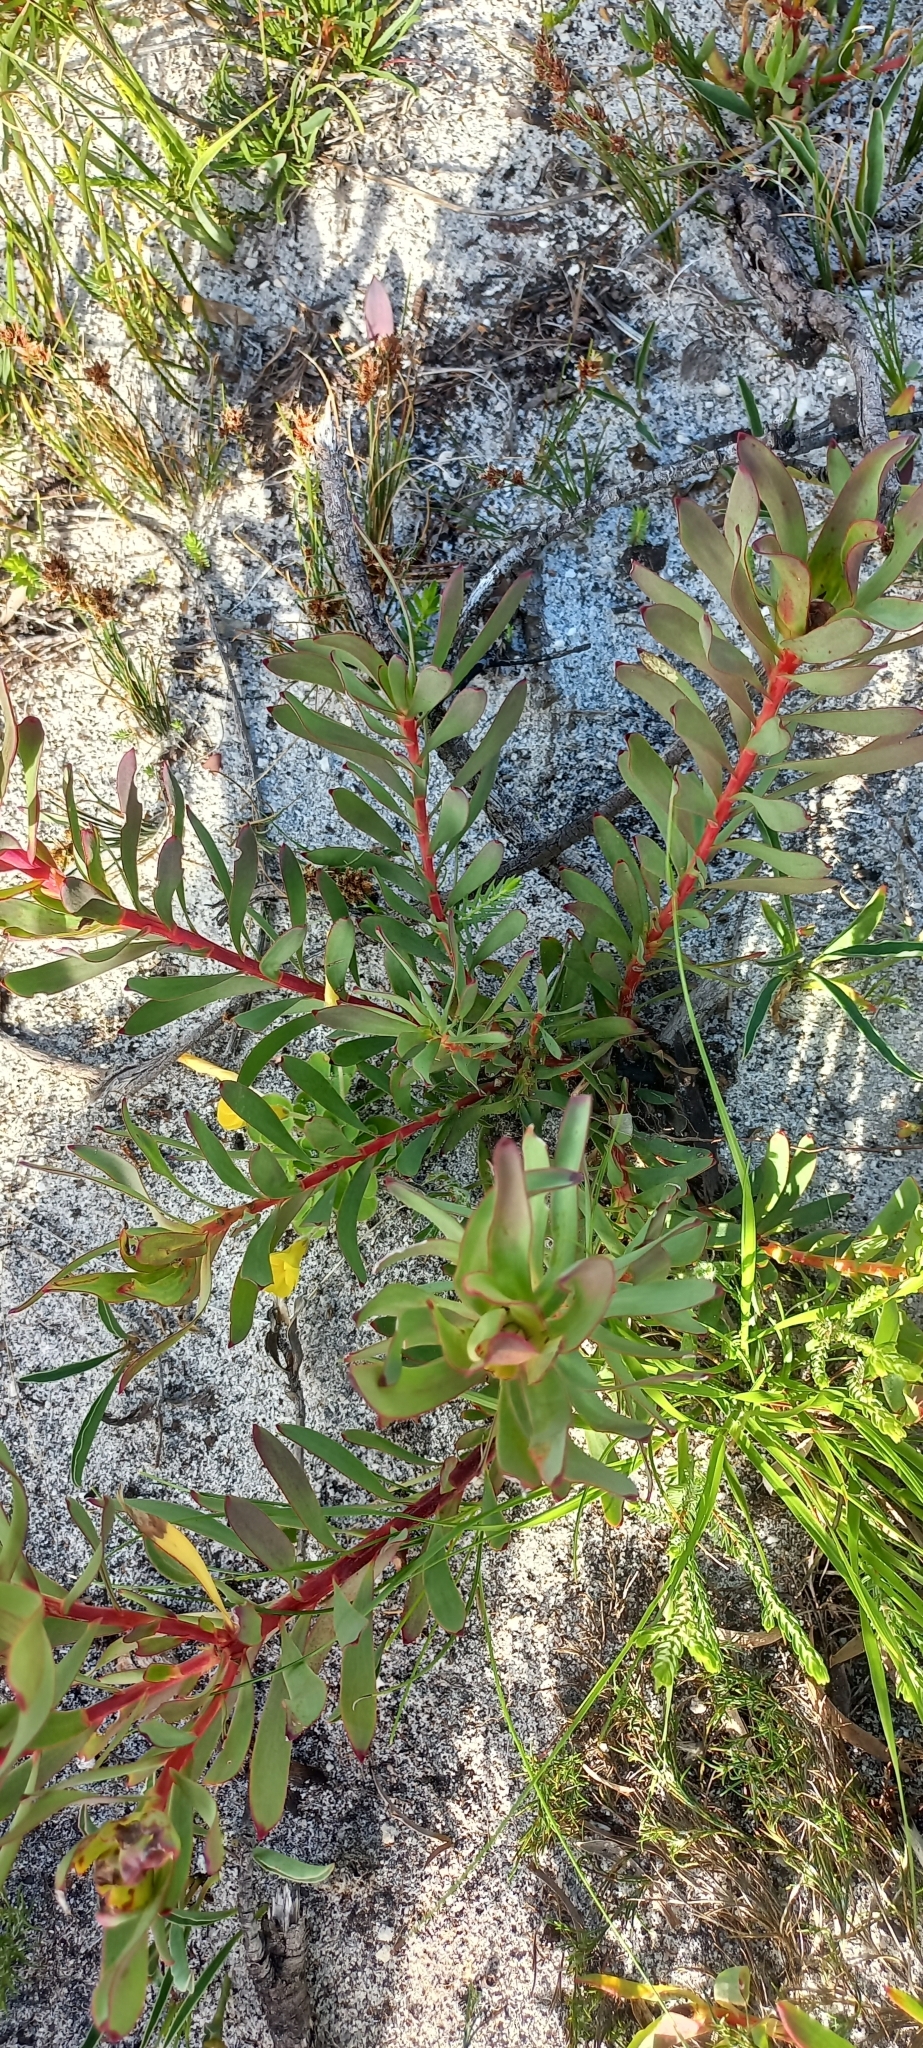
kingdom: Plantae
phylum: Tracheophyta
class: Magnoliopsida
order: Proteales
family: Proteaceae
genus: Leucadendron
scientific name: Leucadendron salignum
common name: Common sunshine conebush
